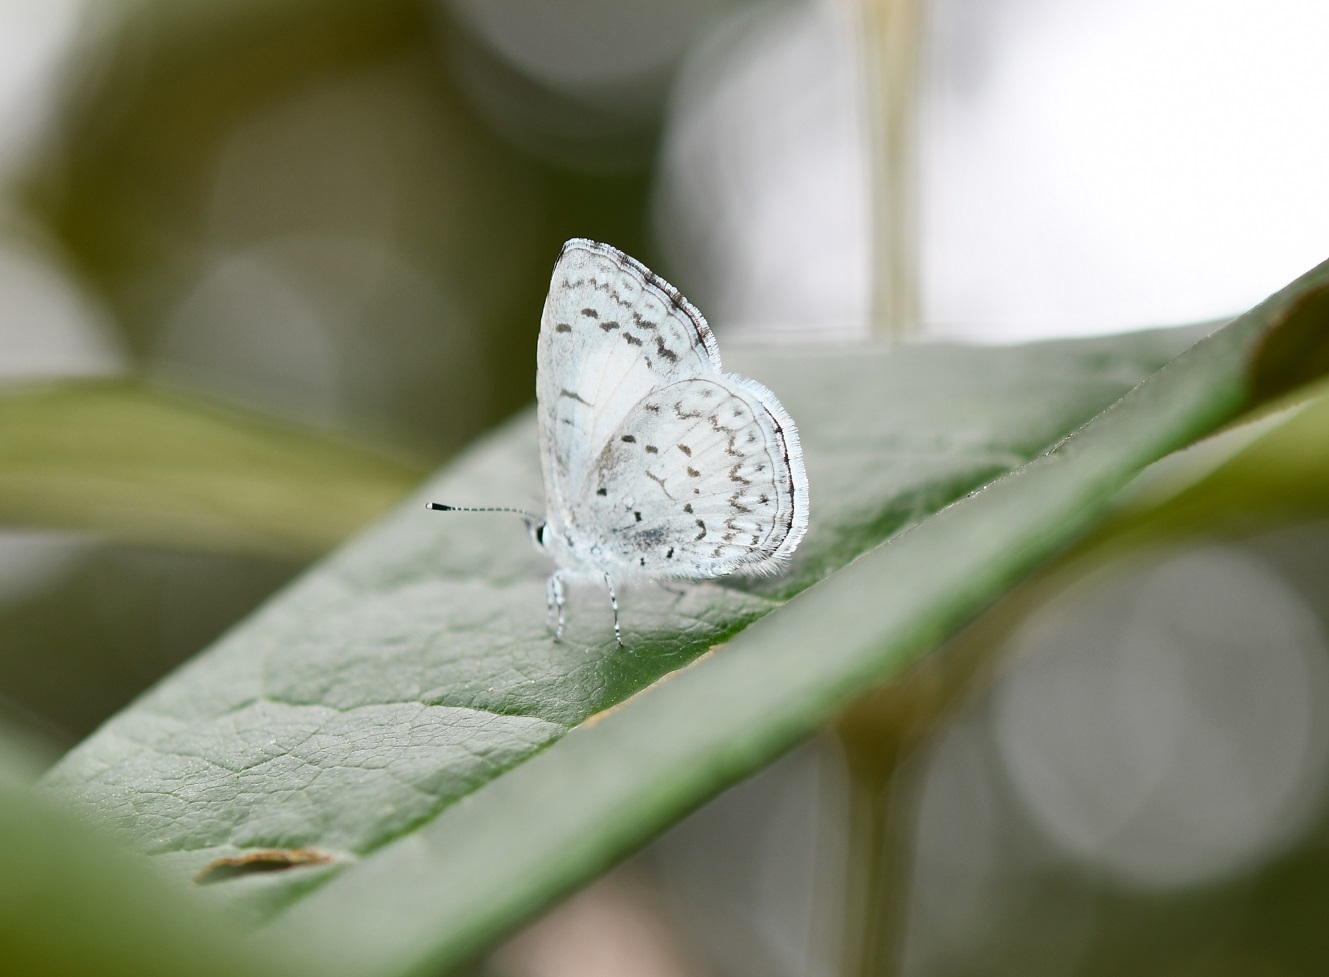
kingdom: Animalia
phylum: Arthropoda
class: Insecta
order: Lepidoptera
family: Lycaenidae
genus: Celastrina
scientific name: Celastrina ladon
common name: Spring azure
